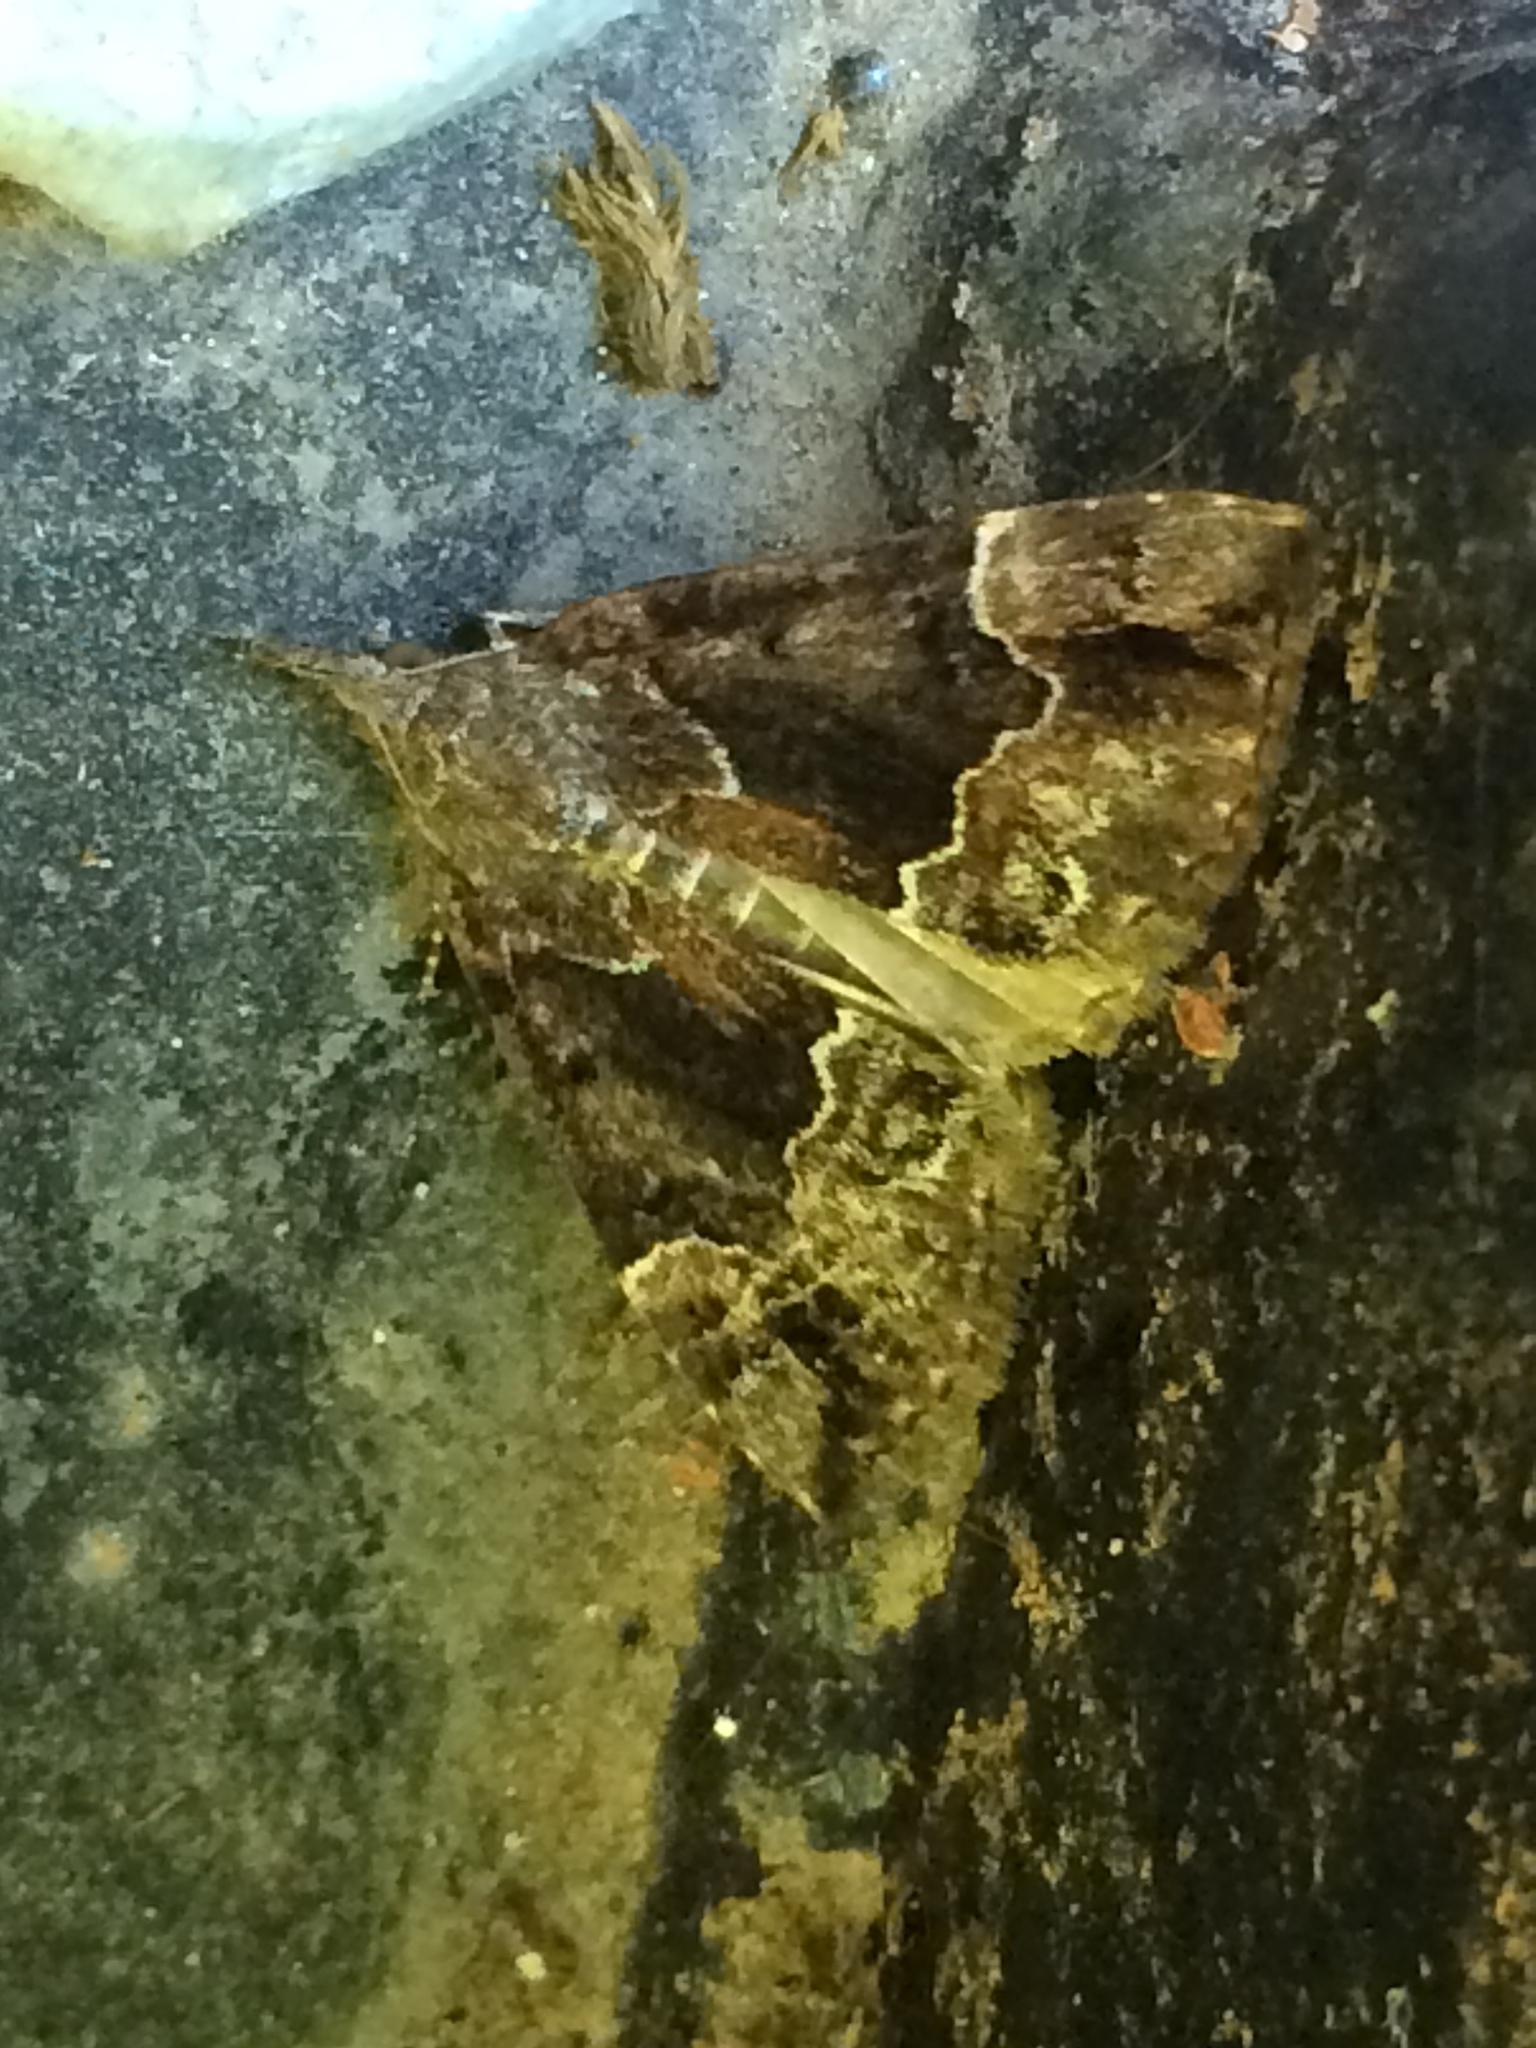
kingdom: Animalia
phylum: Arthropoda
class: Insecta
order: Lepidoptera
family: Erebidae
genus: Hypena
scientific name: Hypena palparia
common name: Mottled bomolocha moth
